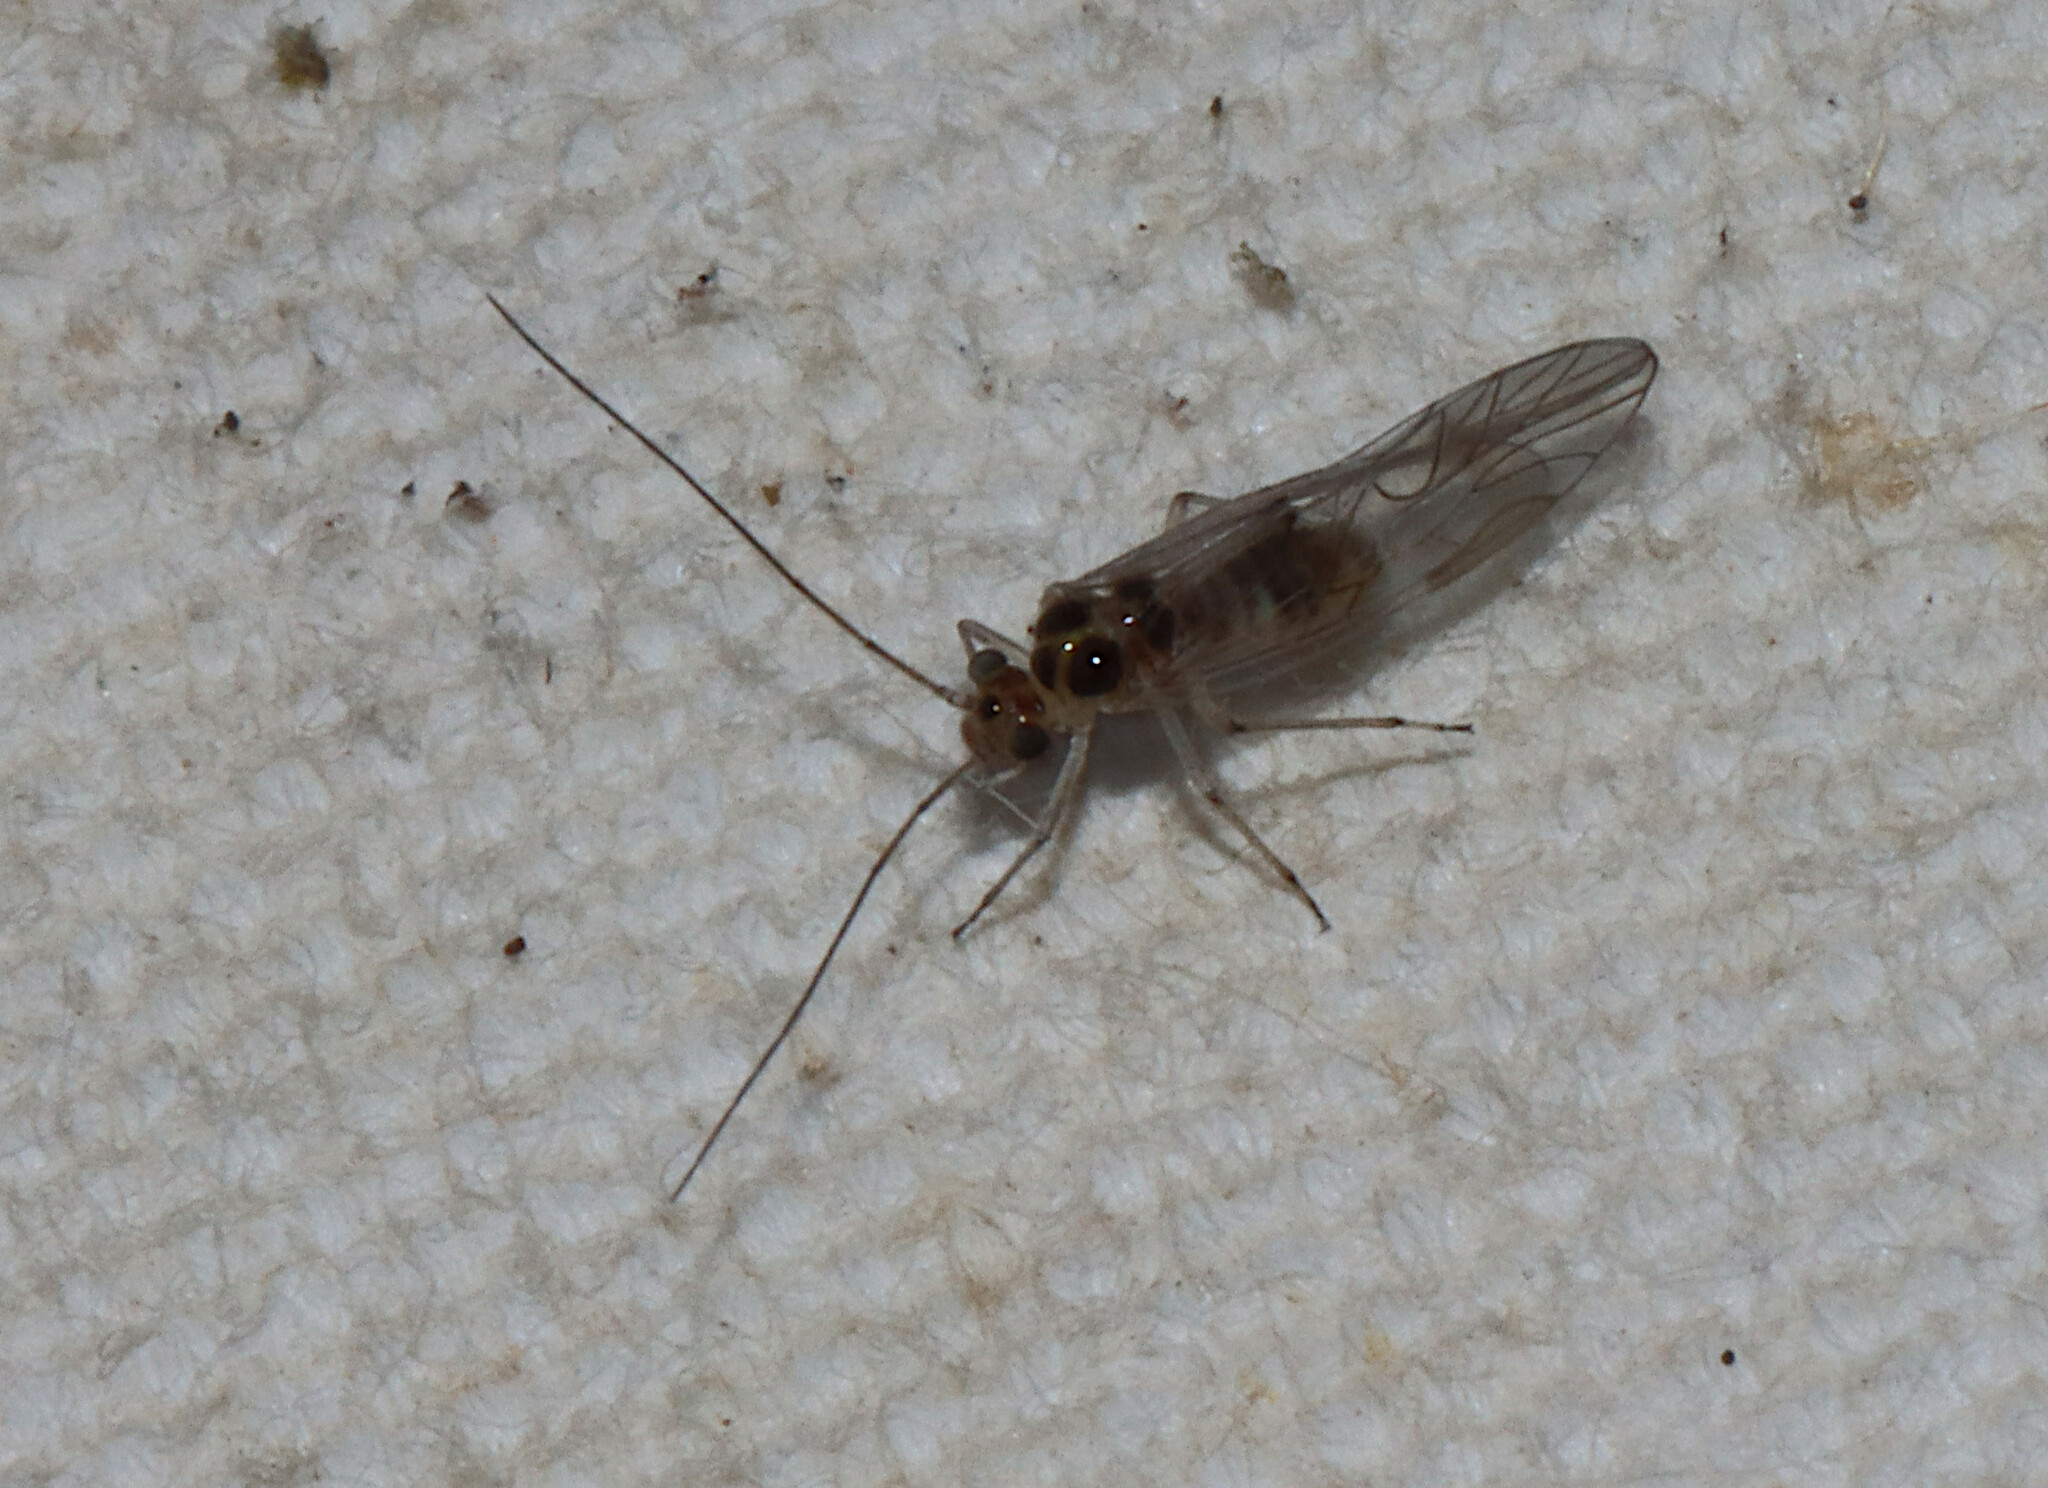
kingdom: Animalia
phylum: Arthropoda
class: Insecta
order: Psocodea
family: Dasydemellidae
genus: Teliapsocus
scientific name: Teliapsocus conterminus
